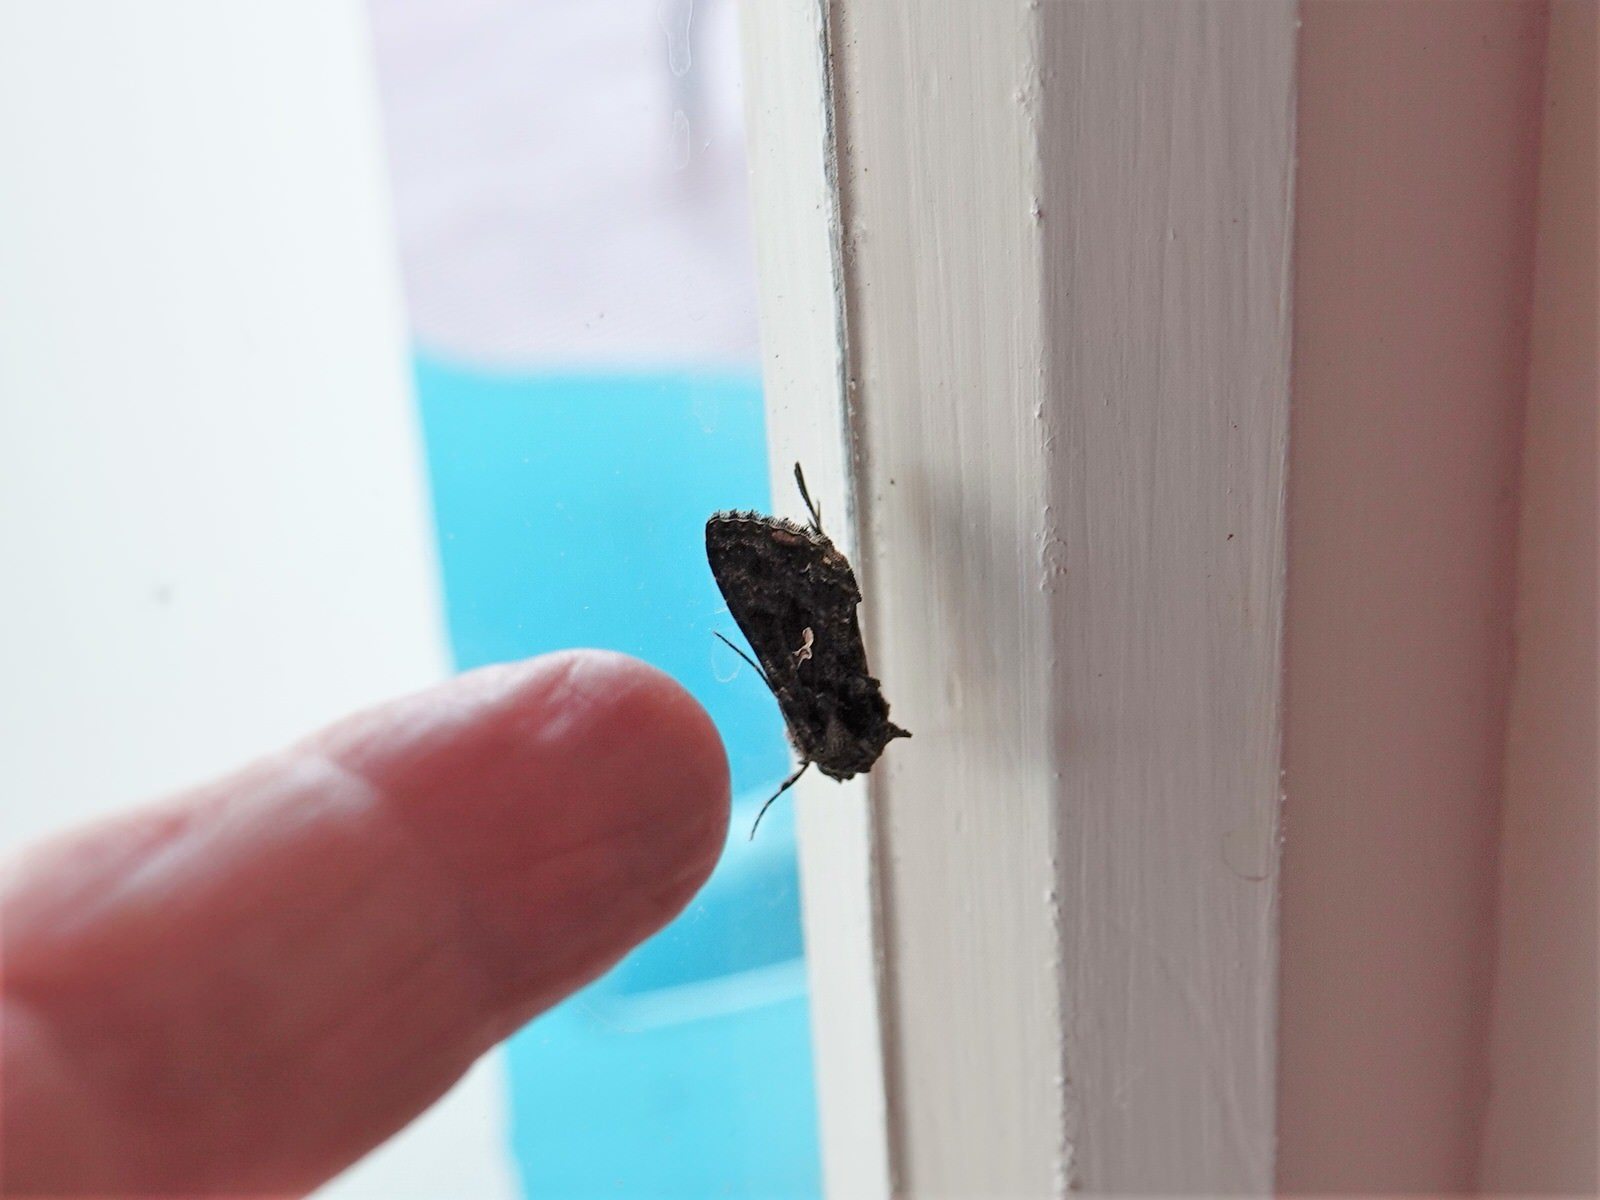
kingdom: Animalia
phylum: Arthropoda
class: Insecta
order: Lepidoptera
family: Noctuidae
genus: Ctenoplusia
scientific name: Ctenoplusia limbirena
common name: Scar bank gem
